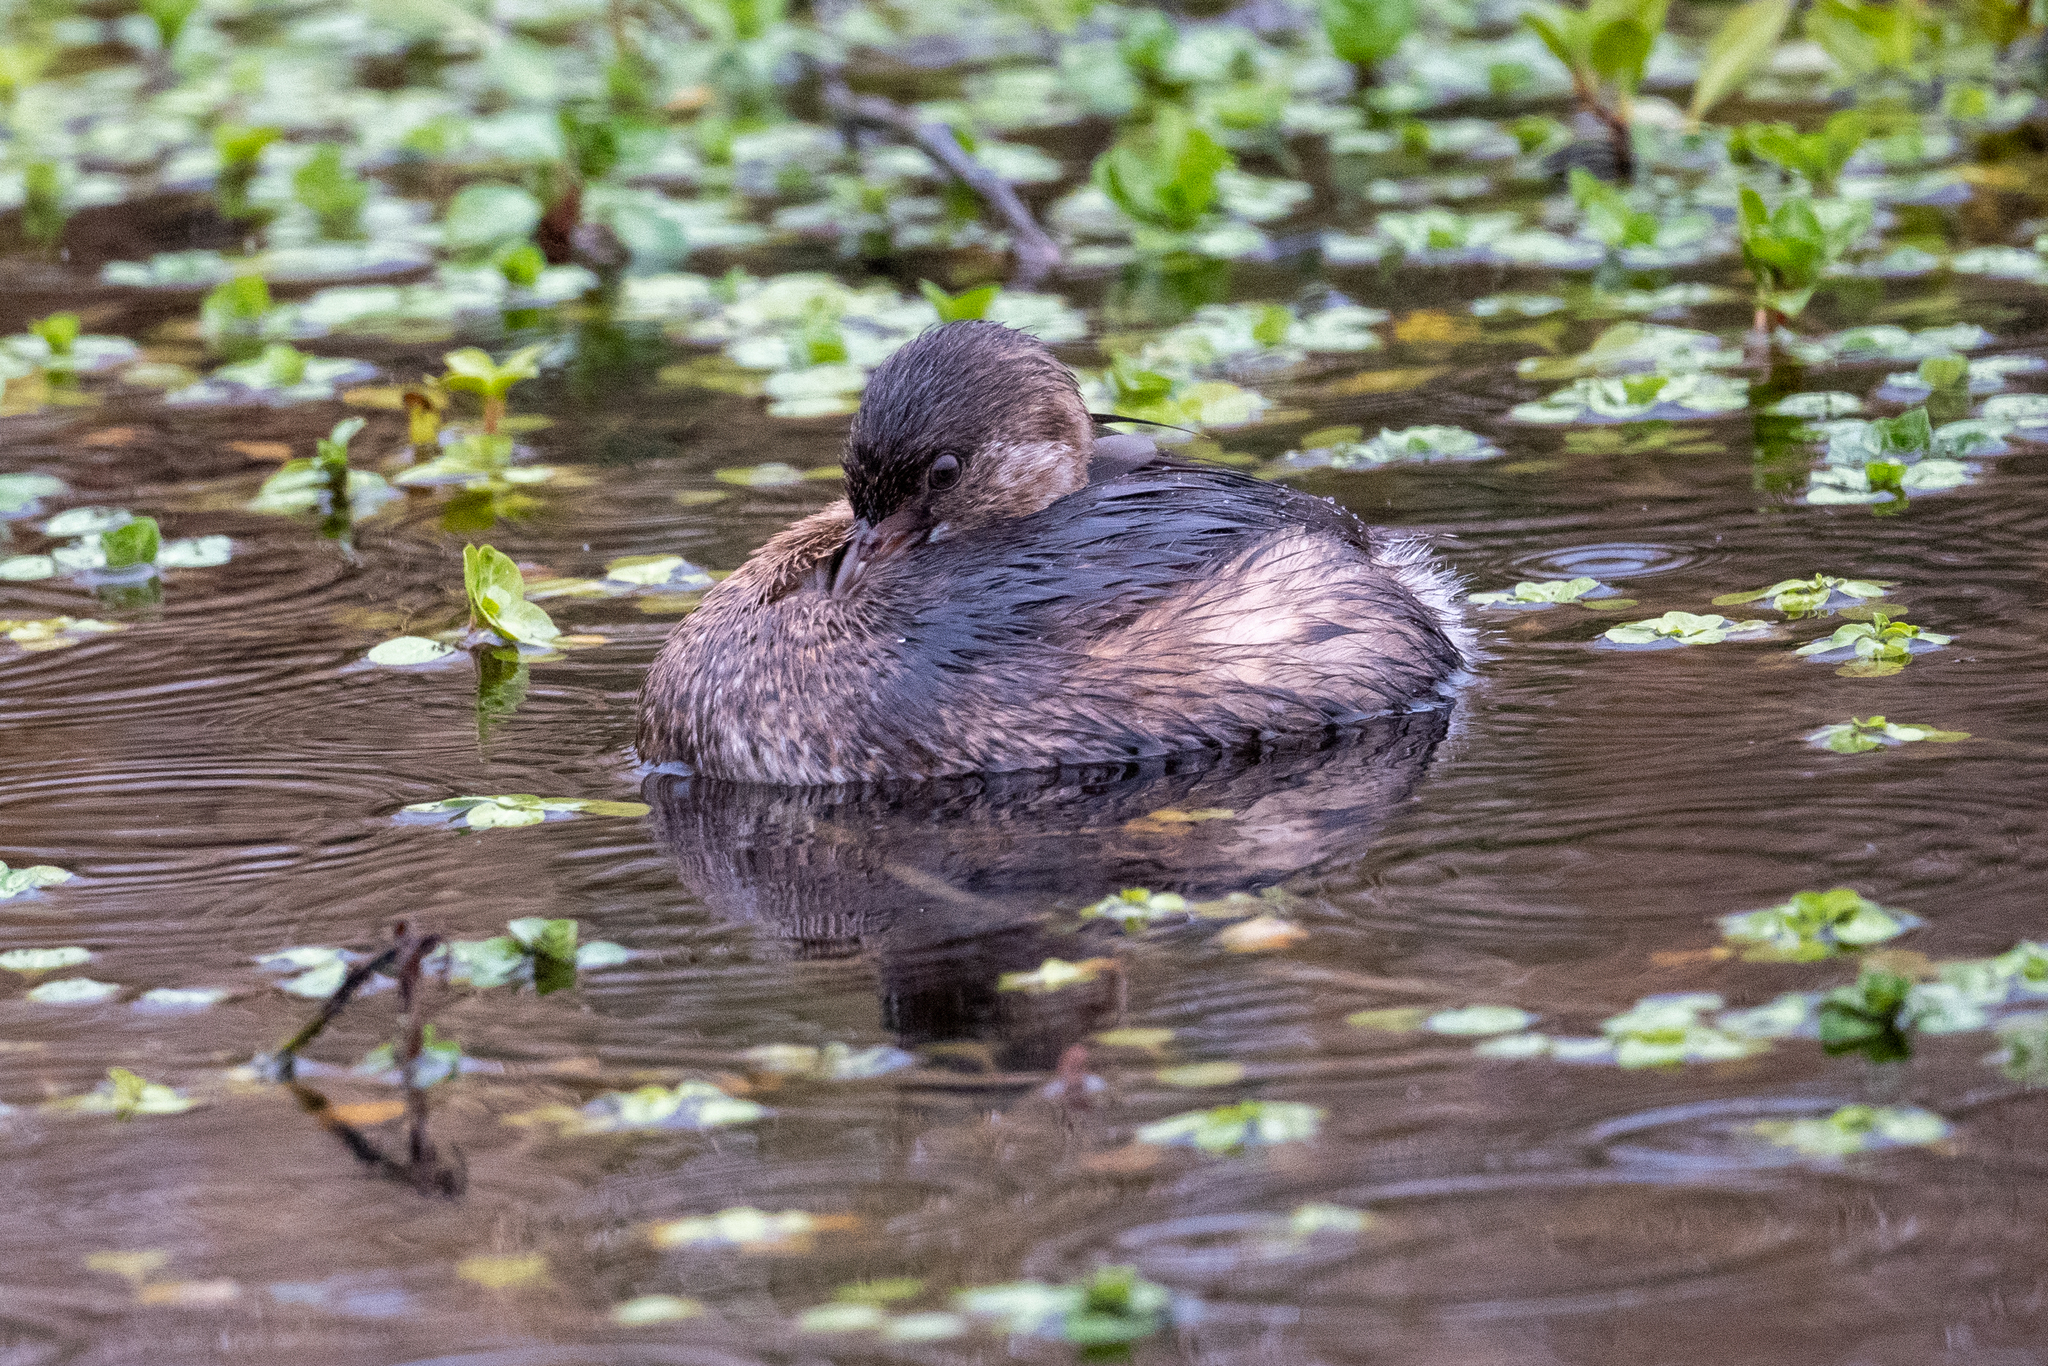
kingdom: Animalia
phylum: Chordata
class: Aves
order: Podicipediformes
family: Podicipedidae
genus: Podilymbus
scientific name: Podilymbus podiceps
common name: Pied-billed grebe
